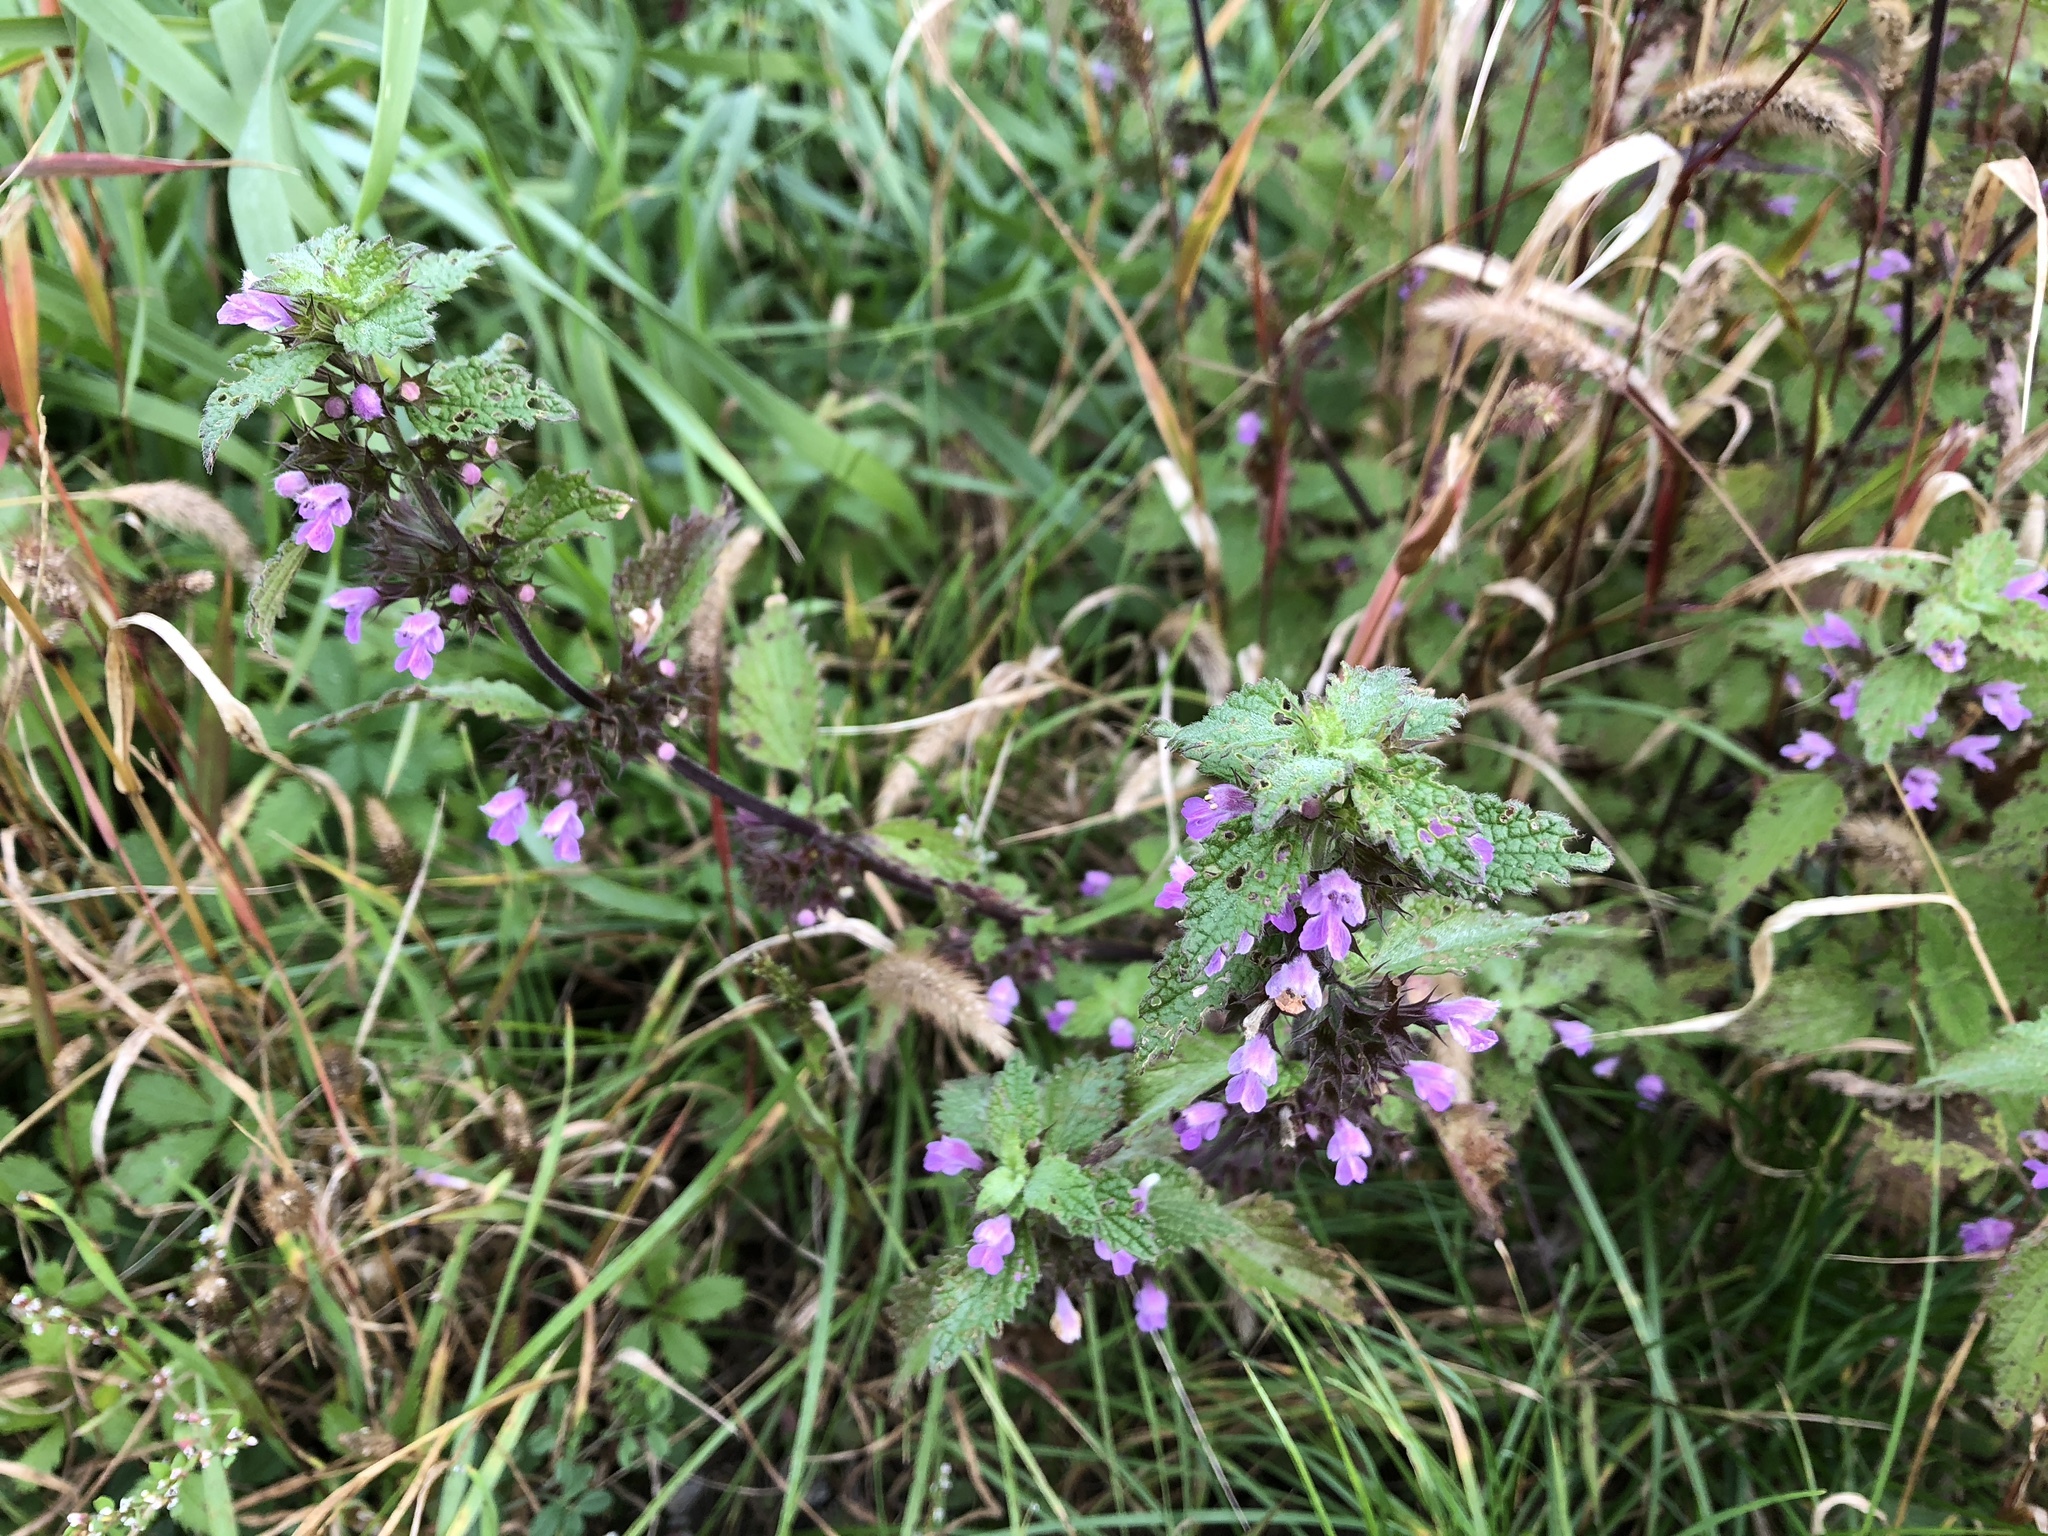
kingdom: Plantae
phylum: Tracheophyta
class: Magnoliopsida
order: Lamiales
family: Lamiaceae
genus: Ballota
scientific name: Ballota nigra
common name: Black horehound
